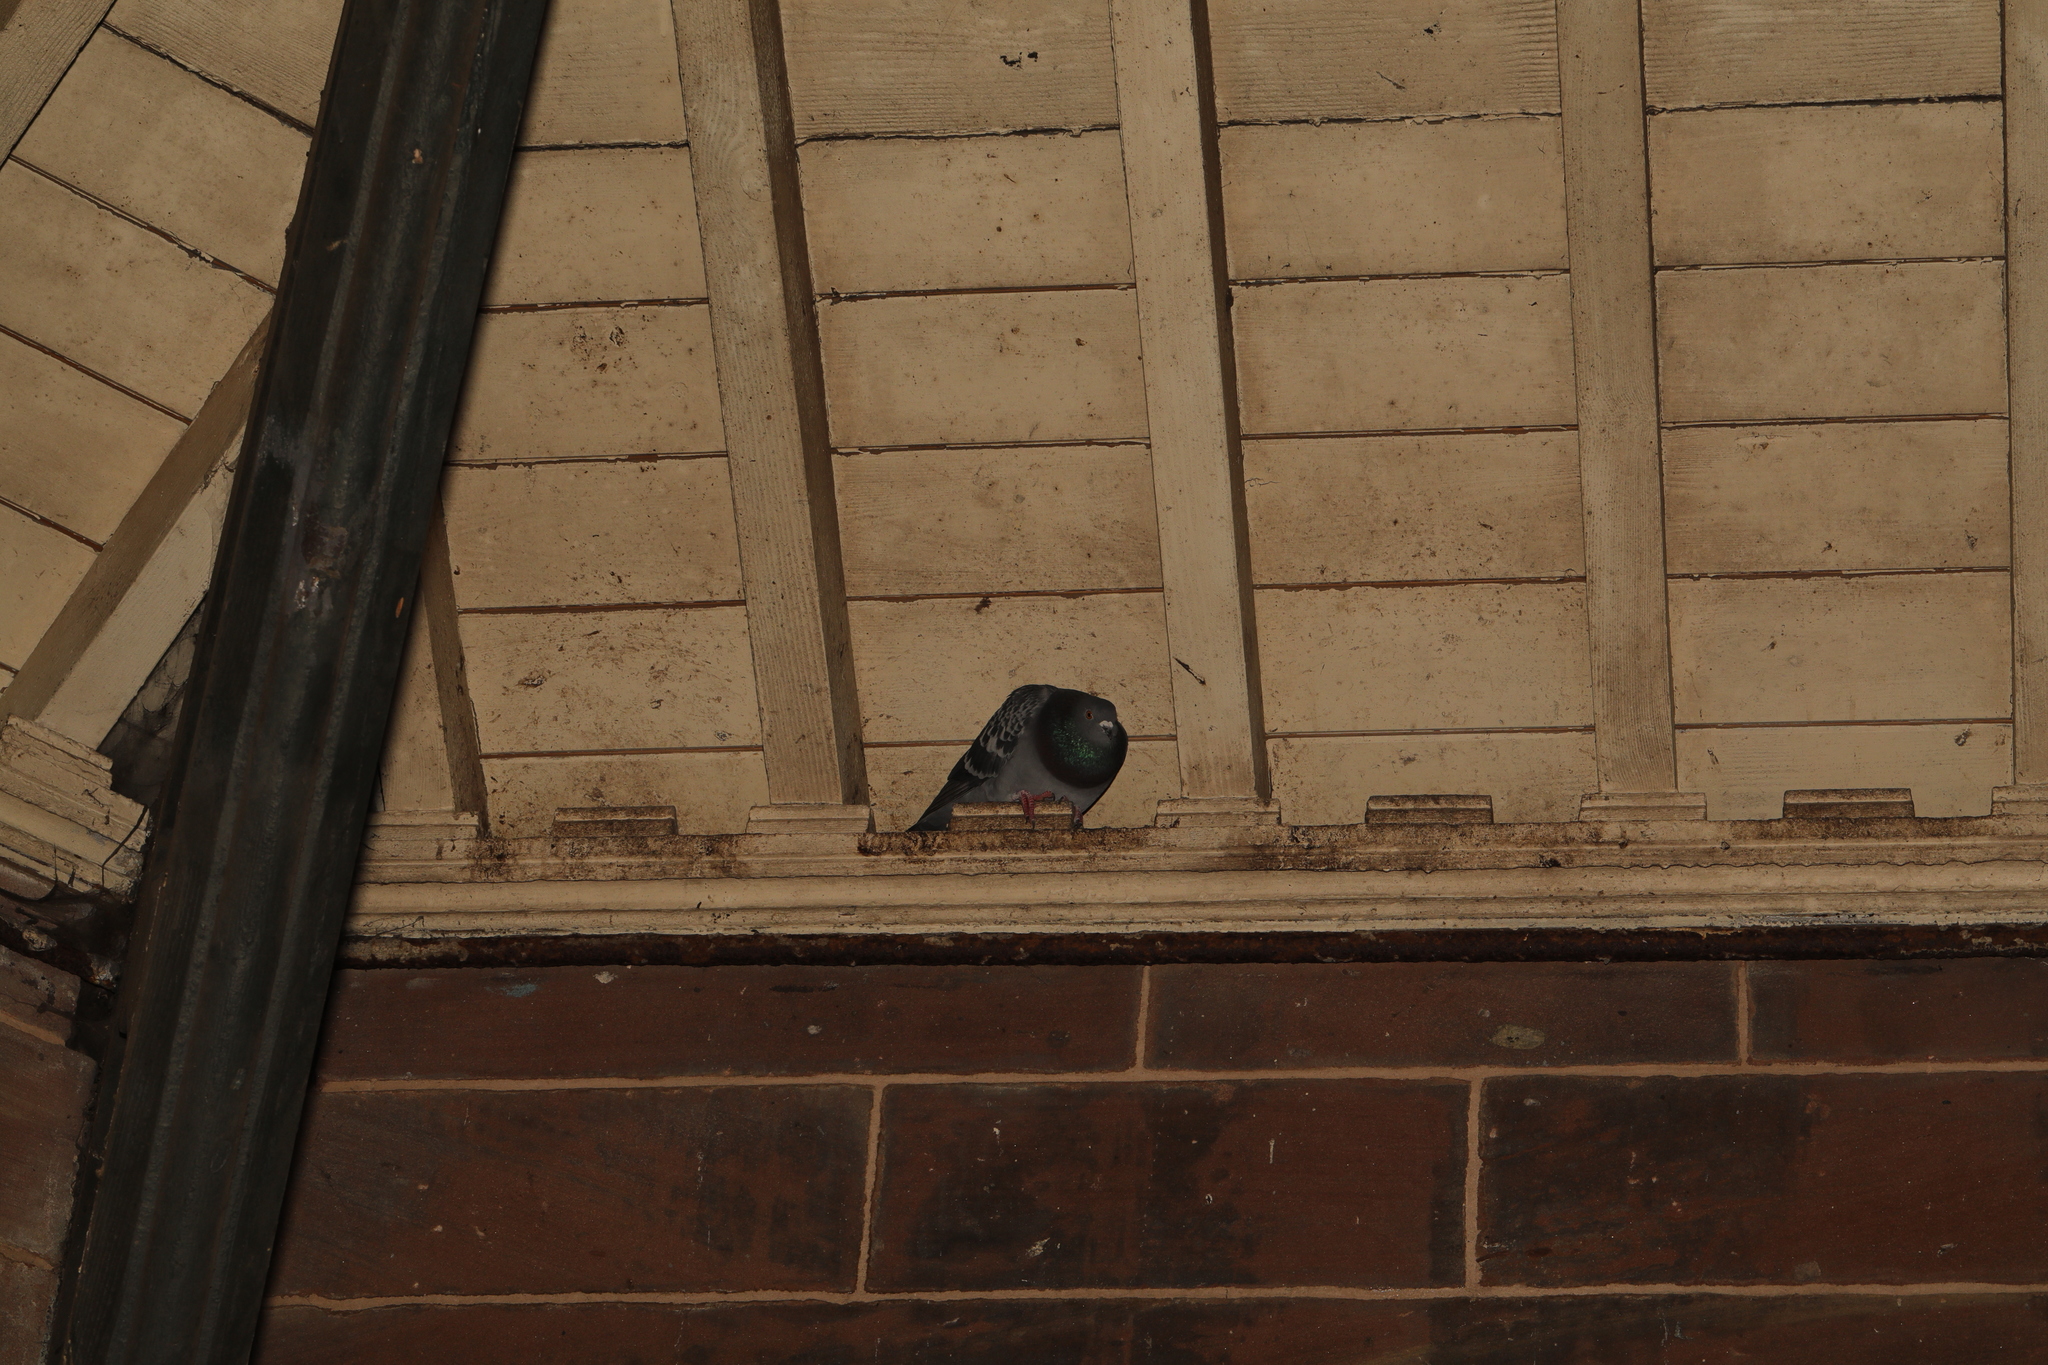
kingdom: Animalia
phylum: Chordata
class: Aves
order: Columbiformes
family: Columbidae
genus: Columba
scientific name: Columba livia
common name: Rock pigeon
